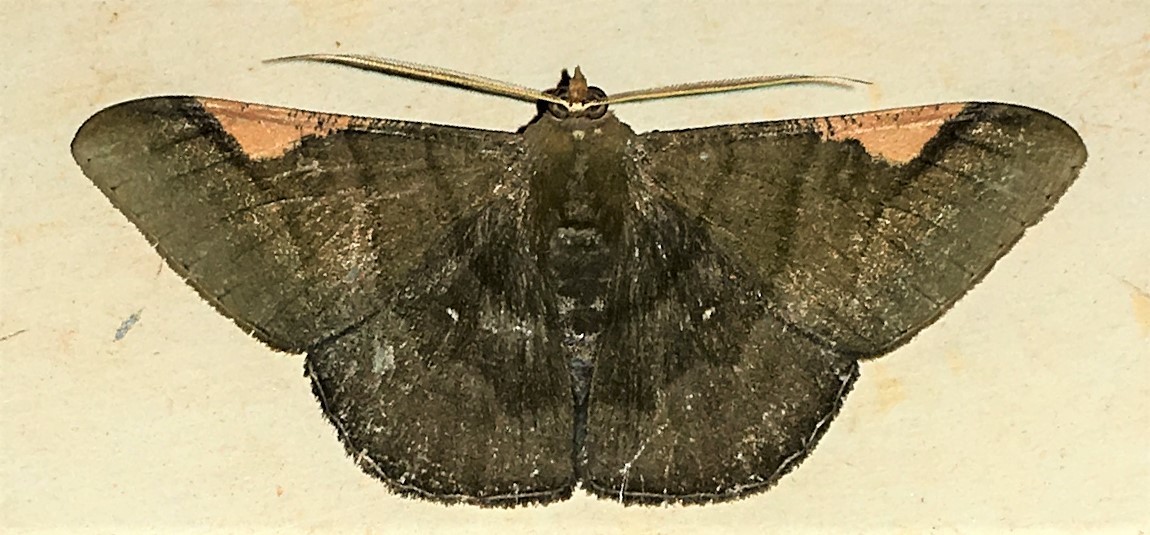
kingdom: Animalia
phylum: Arthropoda
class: Insecta
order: Lepidoptera
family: Geometridae
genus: Sphacelodes
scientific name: Sphacelodes vulneraria
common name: Looper moth
